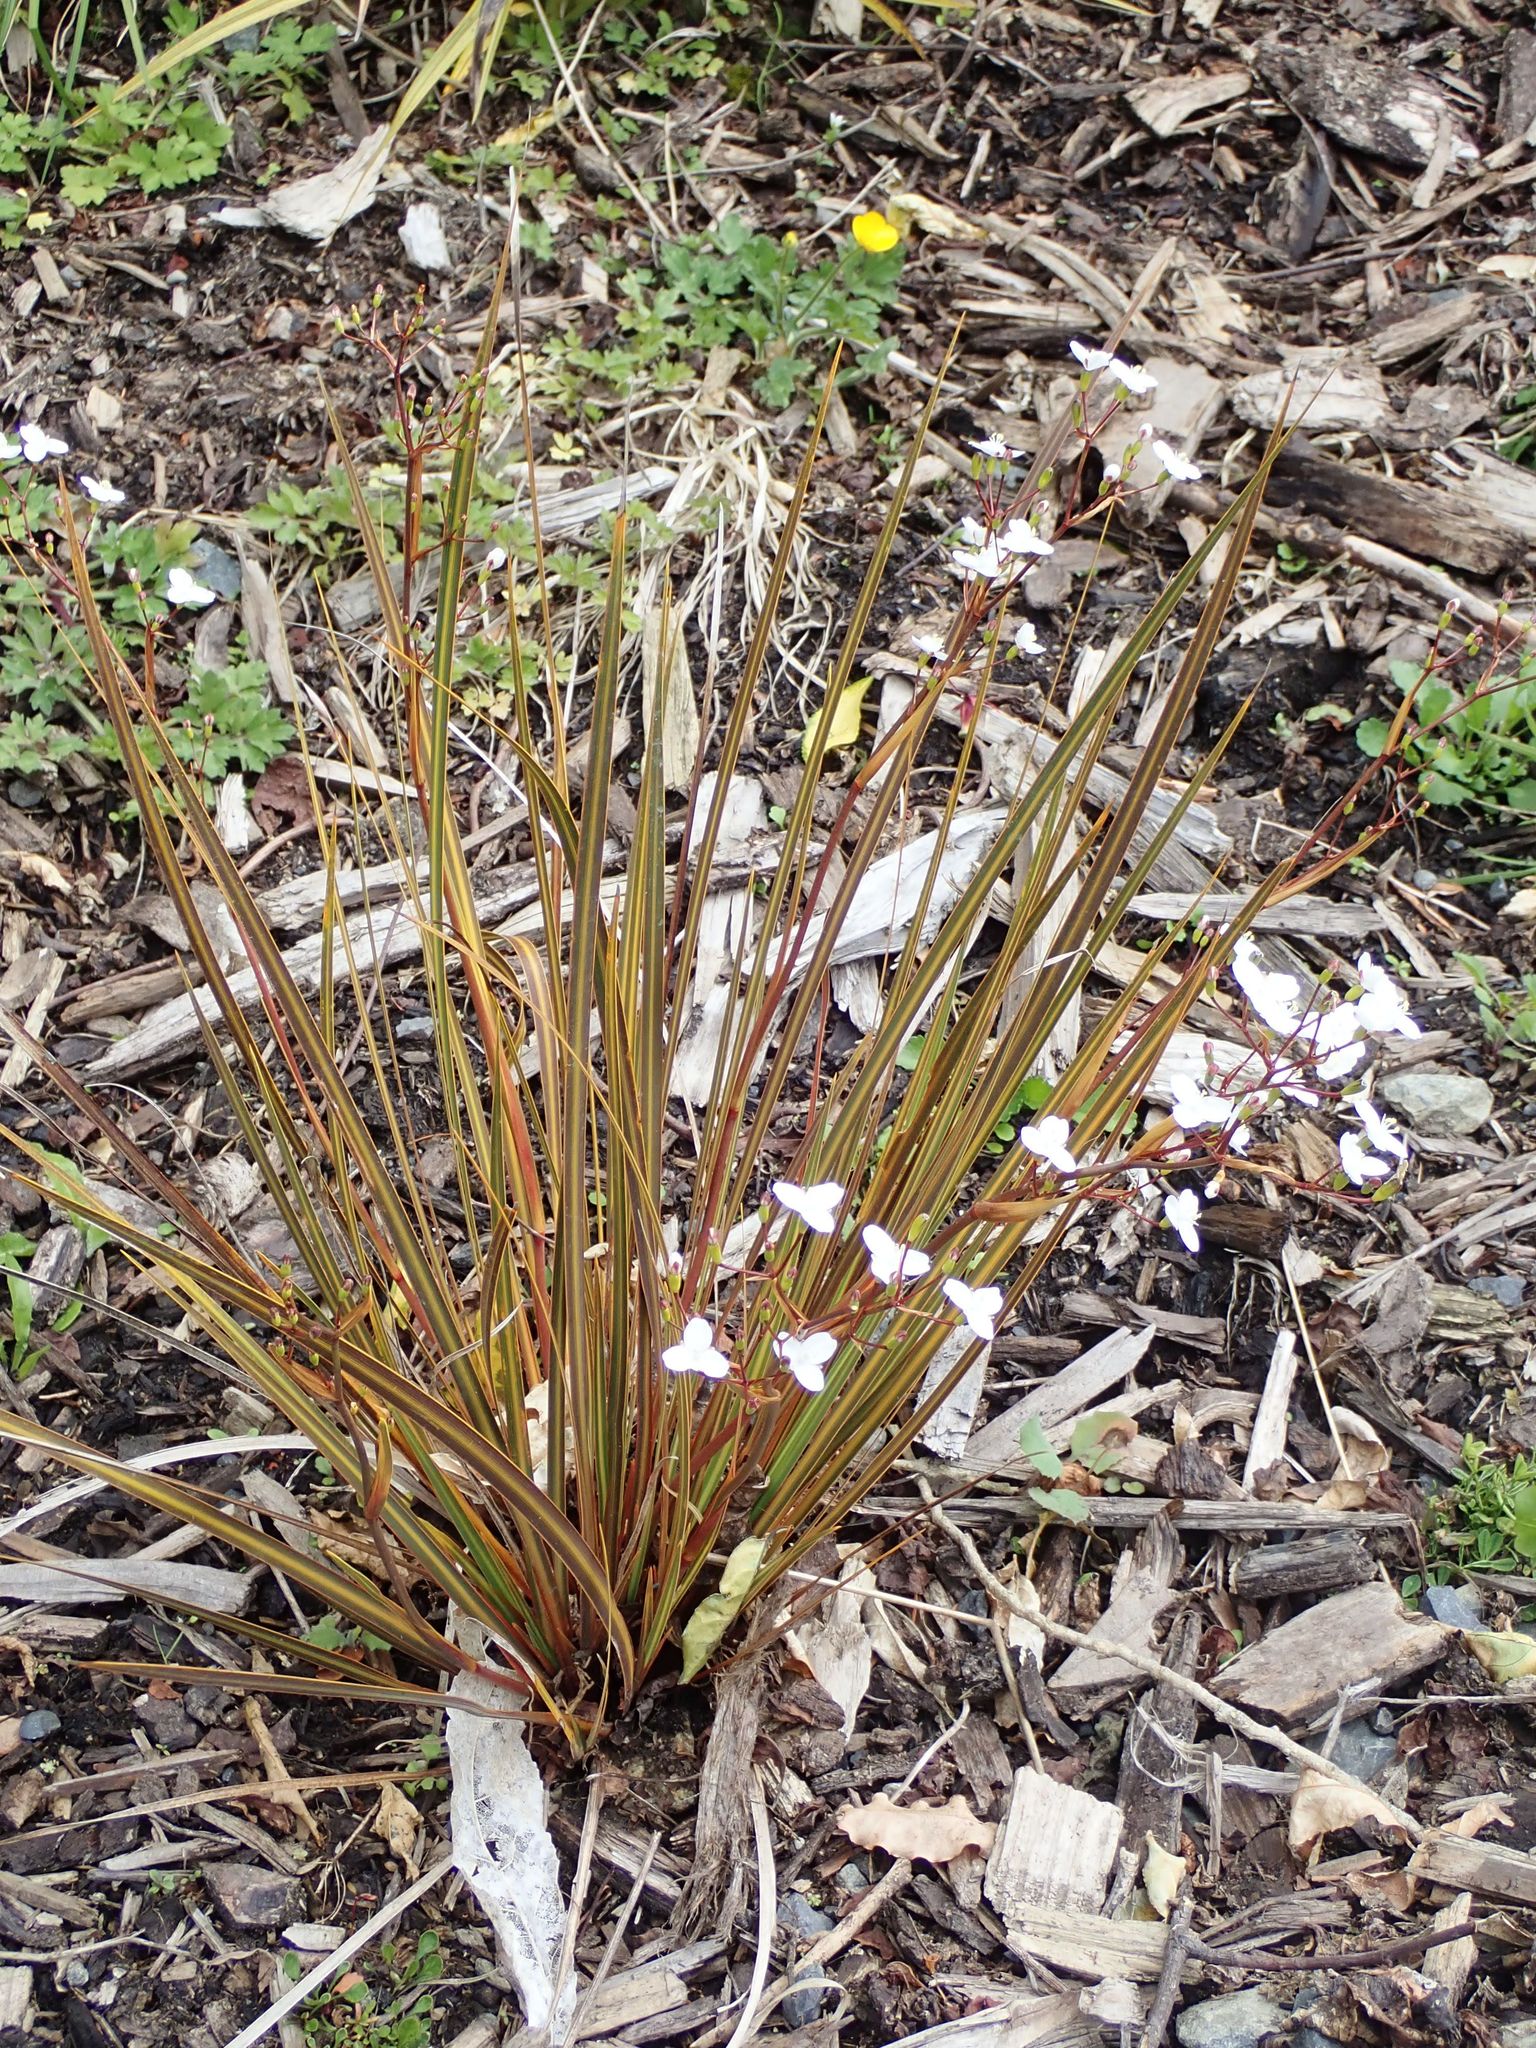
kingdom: Plantae
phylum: Tracheophyta
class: Liliopsida
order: Asparagales
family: Iridaceae
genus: Libertia
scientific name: Libertia ixioides
